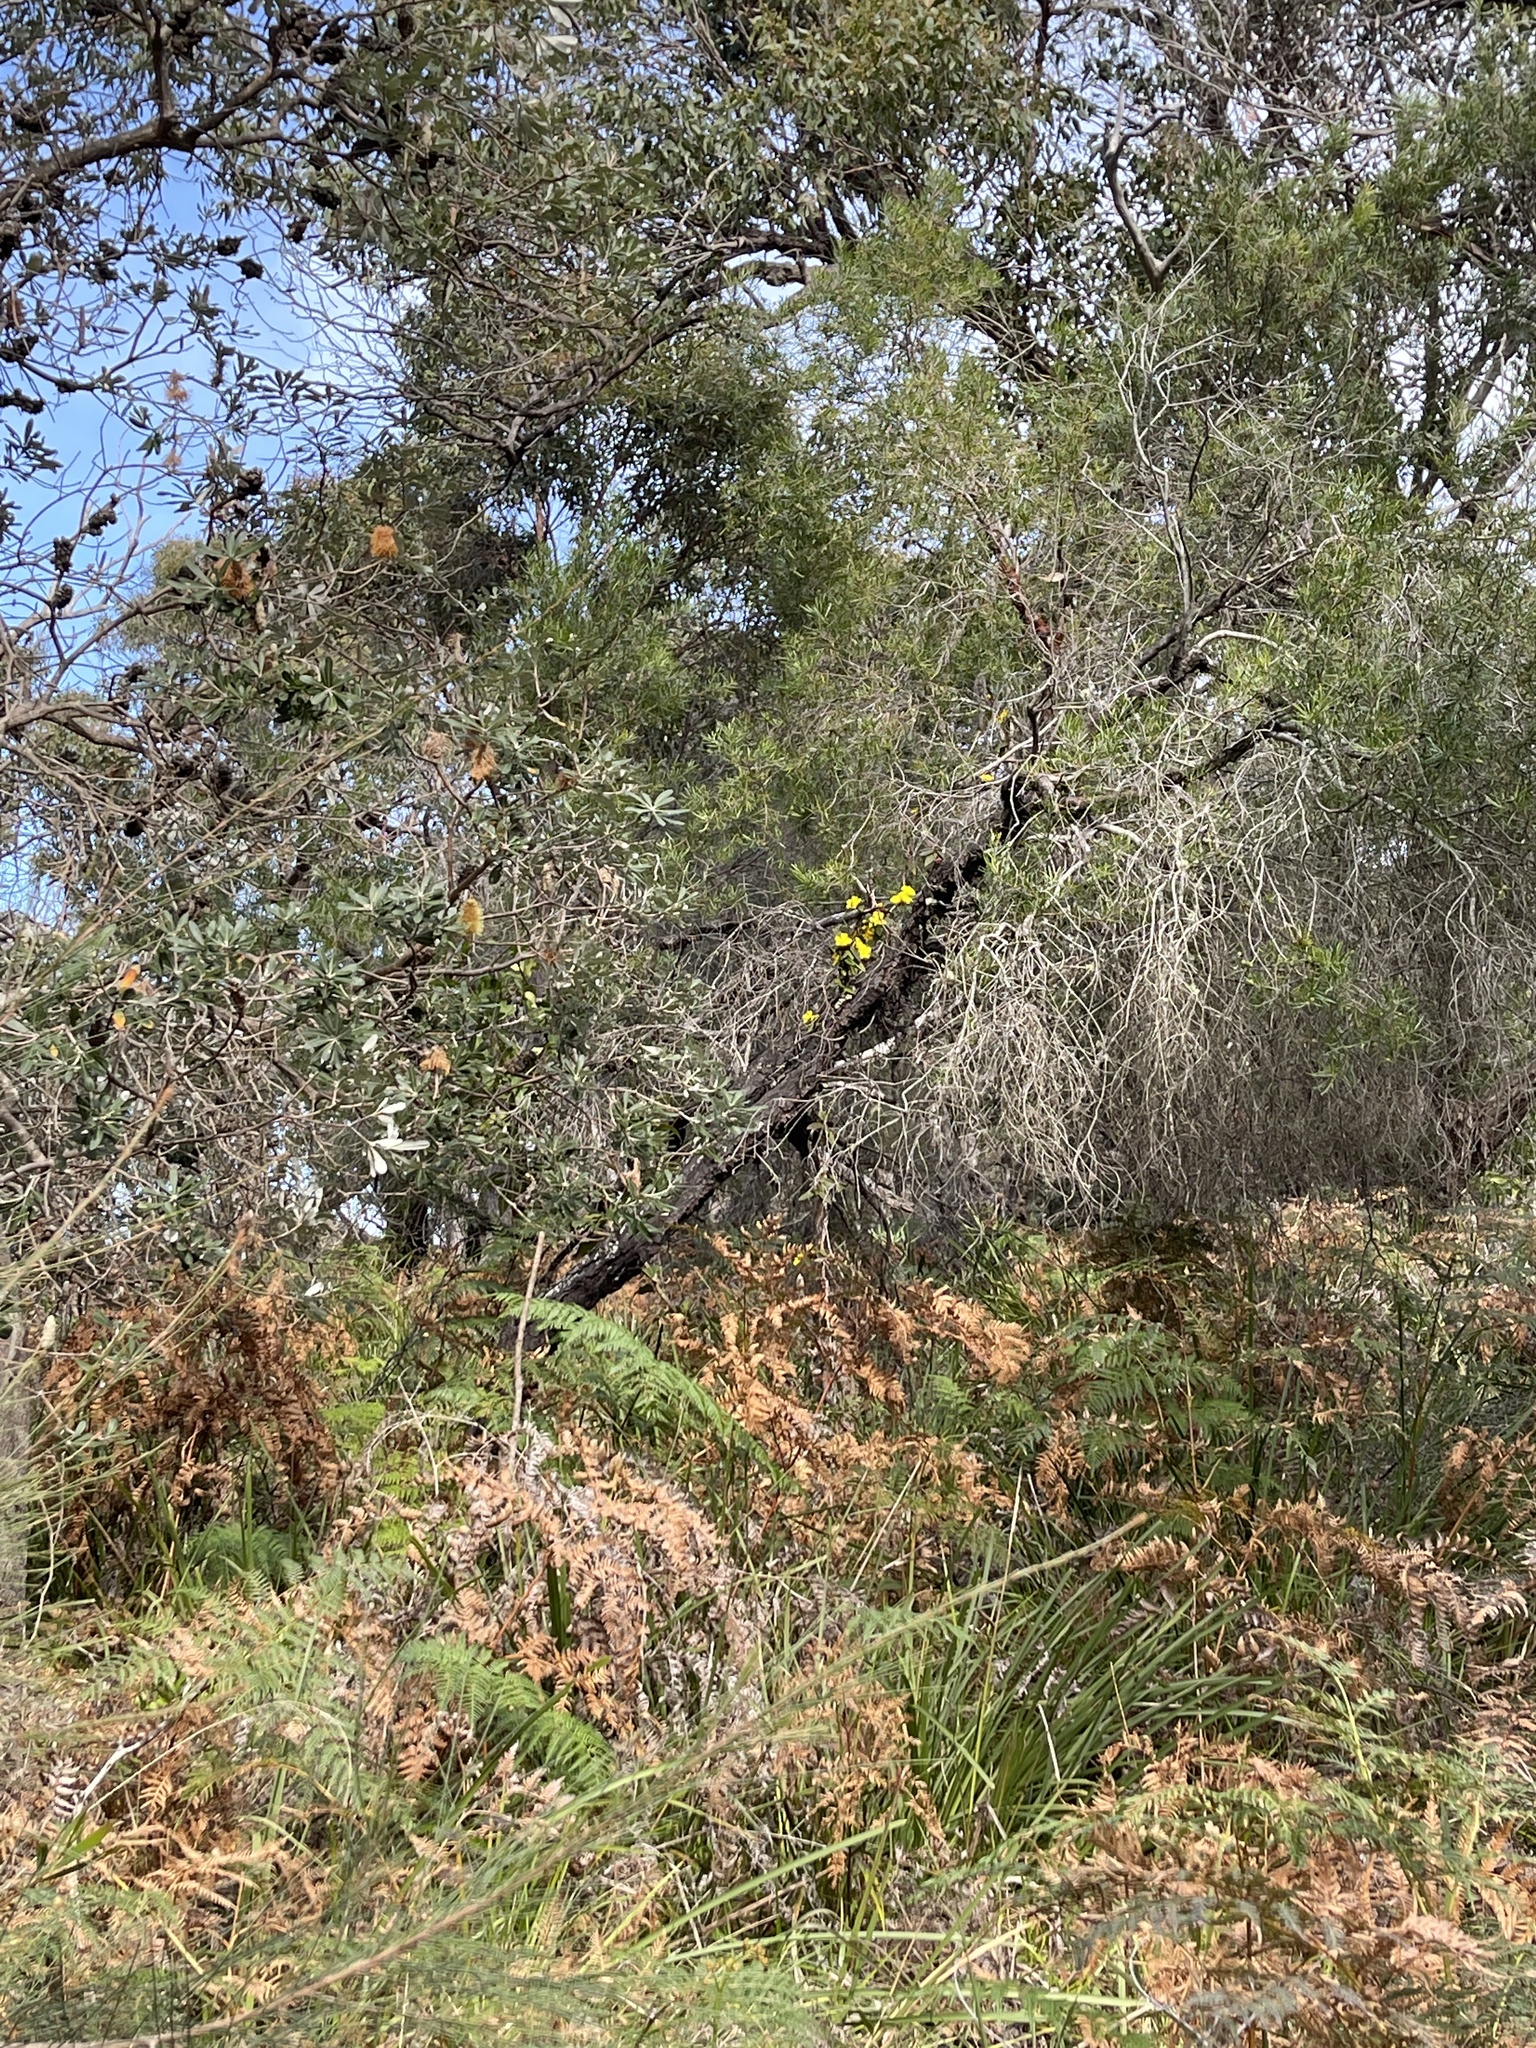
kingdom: Plantae
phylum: Tracheophyta
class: Magnoliopsida
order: Dilleniales
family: Dilleniaceae
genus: Hibbertia
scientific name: Hibbertia dentata
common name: Trailing guinea-flower
